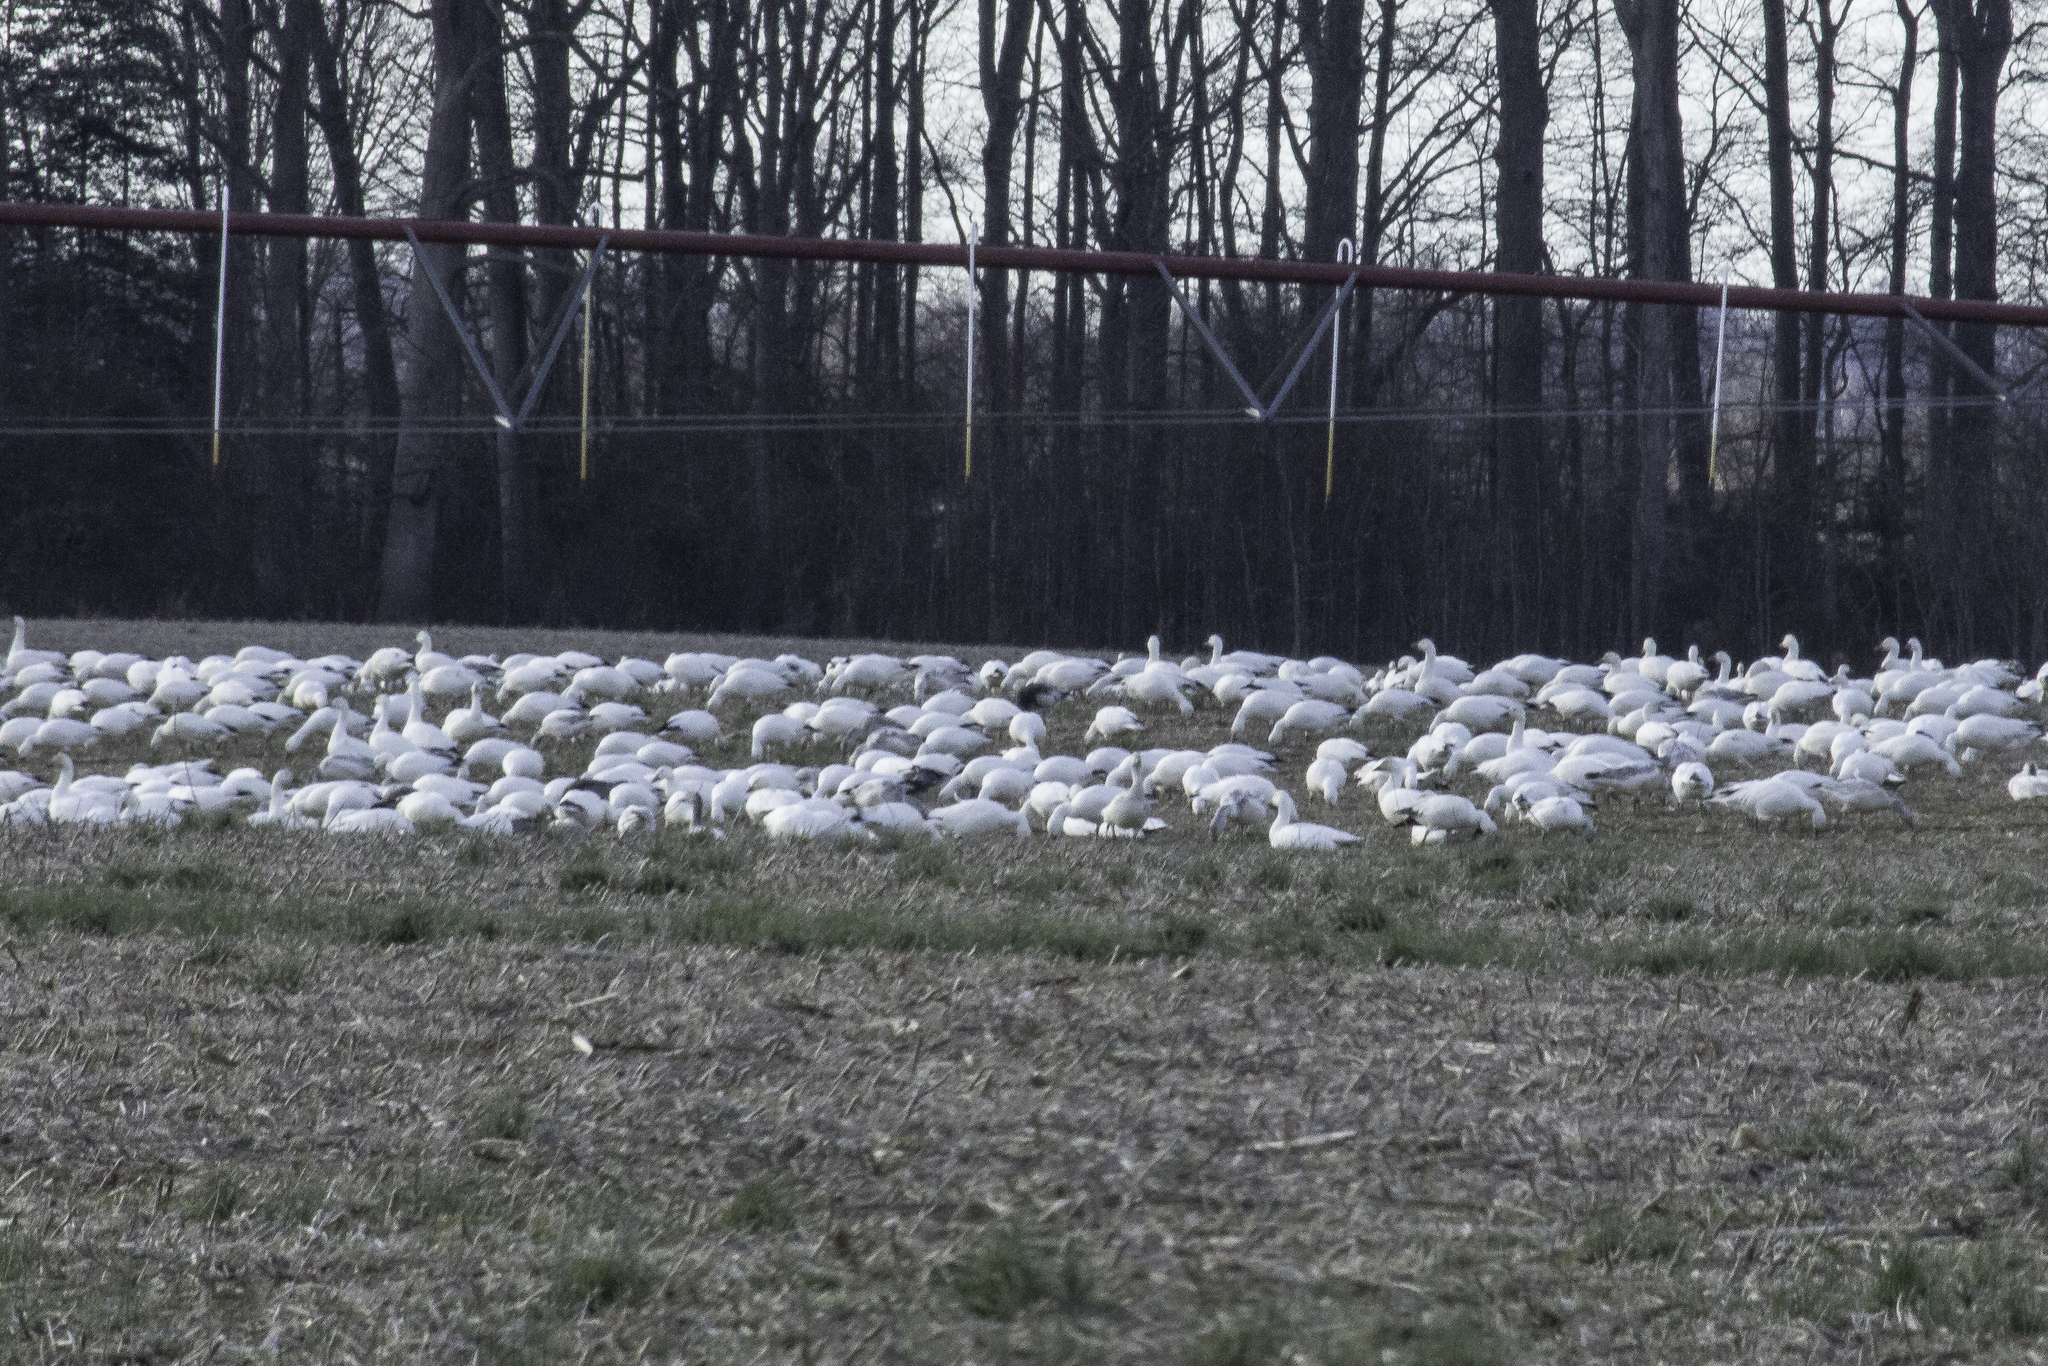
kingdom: Animalia
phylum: Chordata
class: Aves
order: Anseriformes
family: Anatidae
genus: Anser
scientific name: Anser caerulescens
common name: Snow goose
